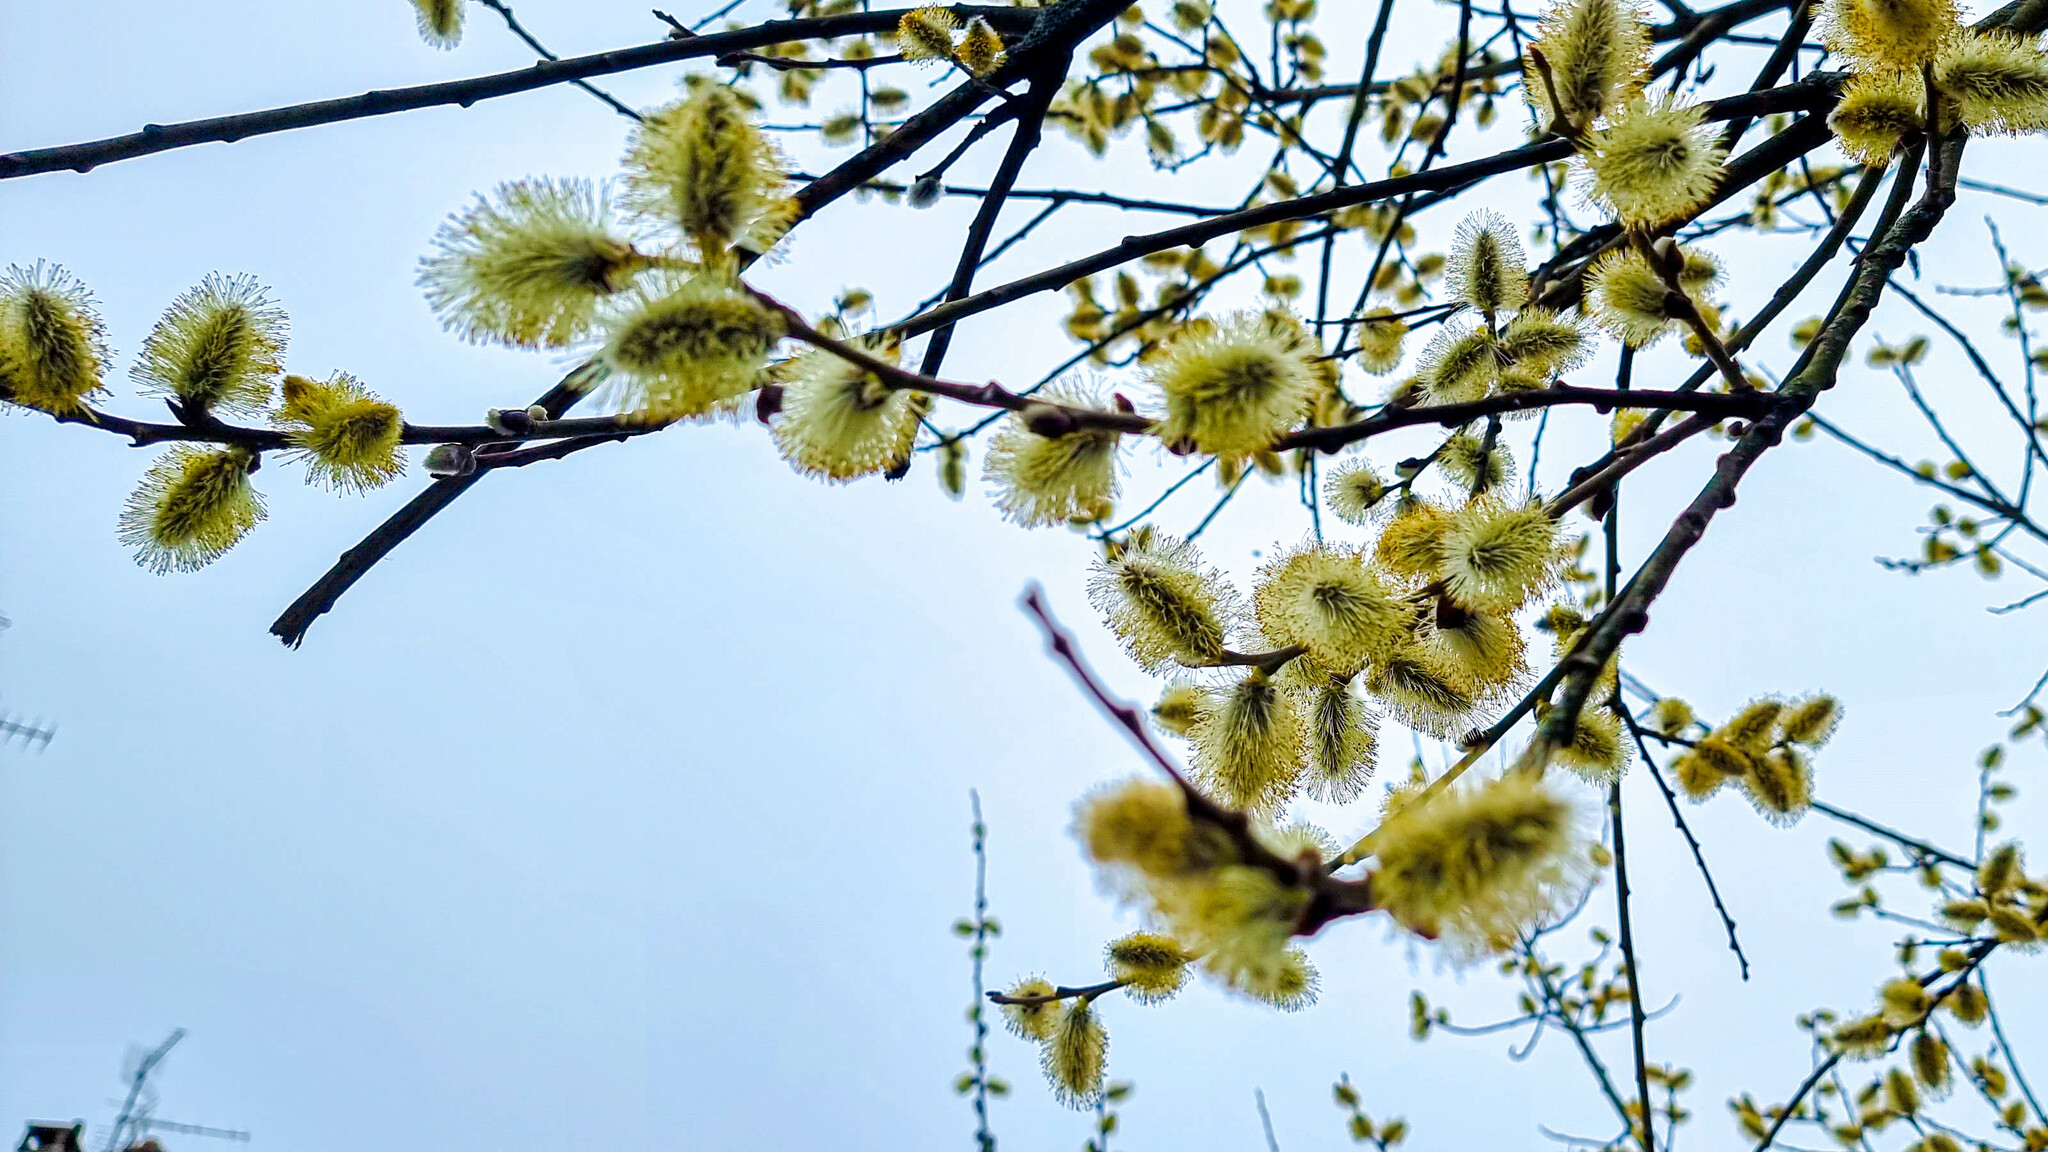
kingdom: Plantae
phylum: Tracheophyta
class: Magnoliopsida
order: Malpighiales
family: Salicaceae
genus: Salix
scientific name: Salix caprea
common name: Goat willow
